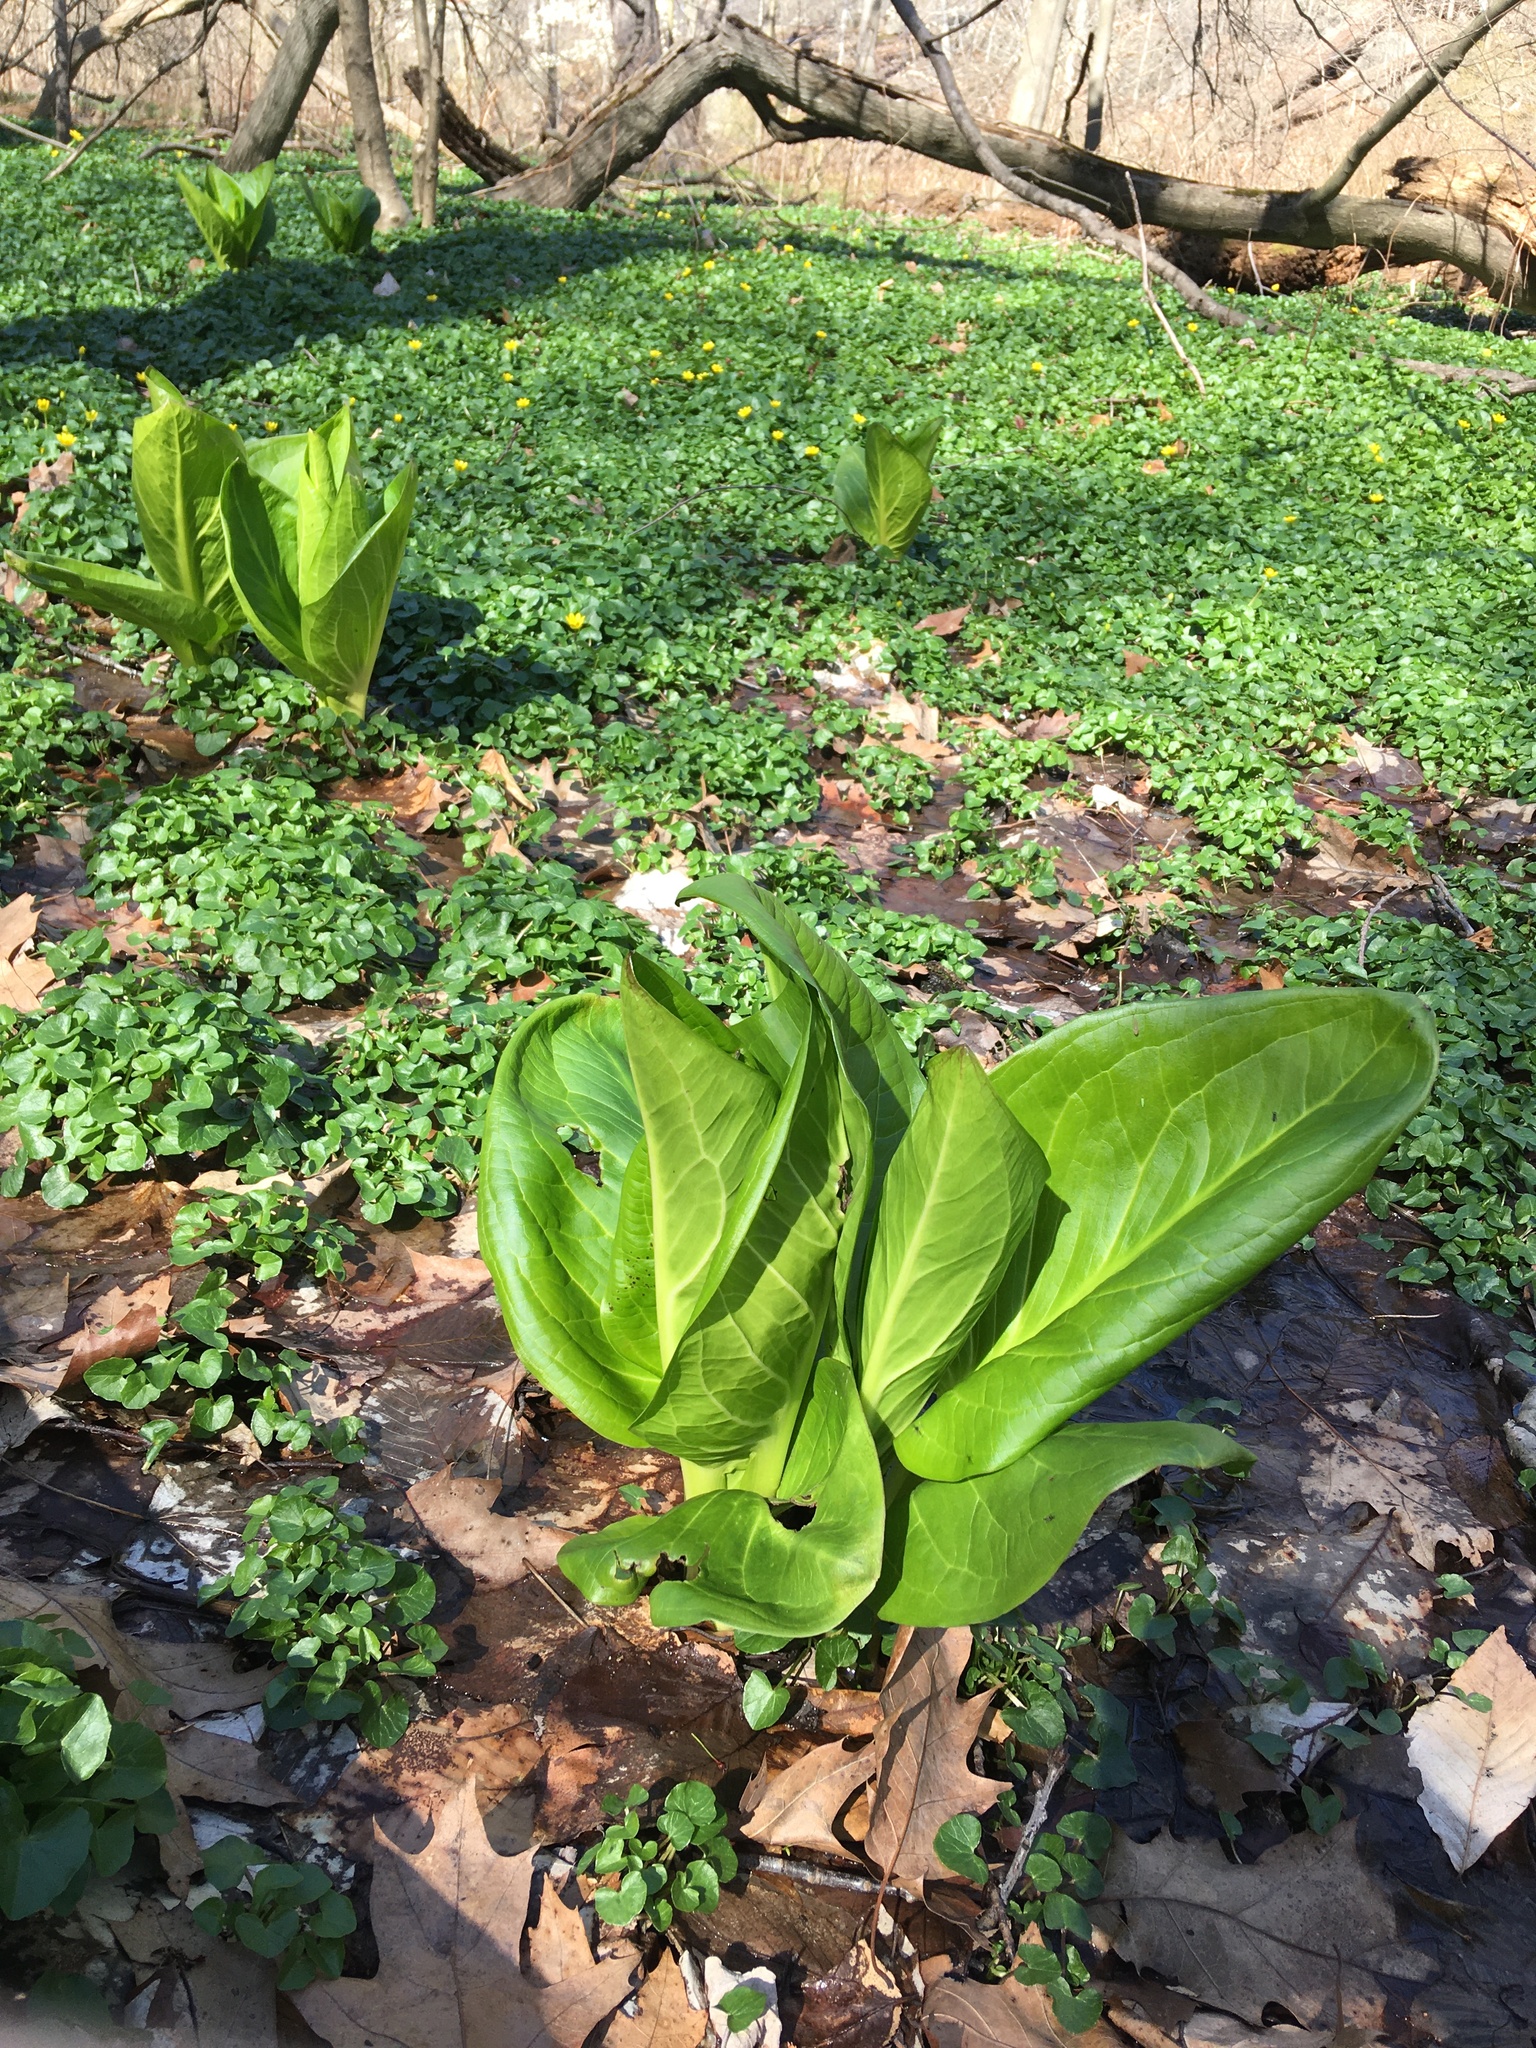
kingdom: Plantae
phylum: Tracheophyta
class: Liliopsida
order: Alismatales
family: Araceae
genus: Symplocarpus
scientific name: Symplocarpus foetidus
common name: Eastern skunk cabbage
